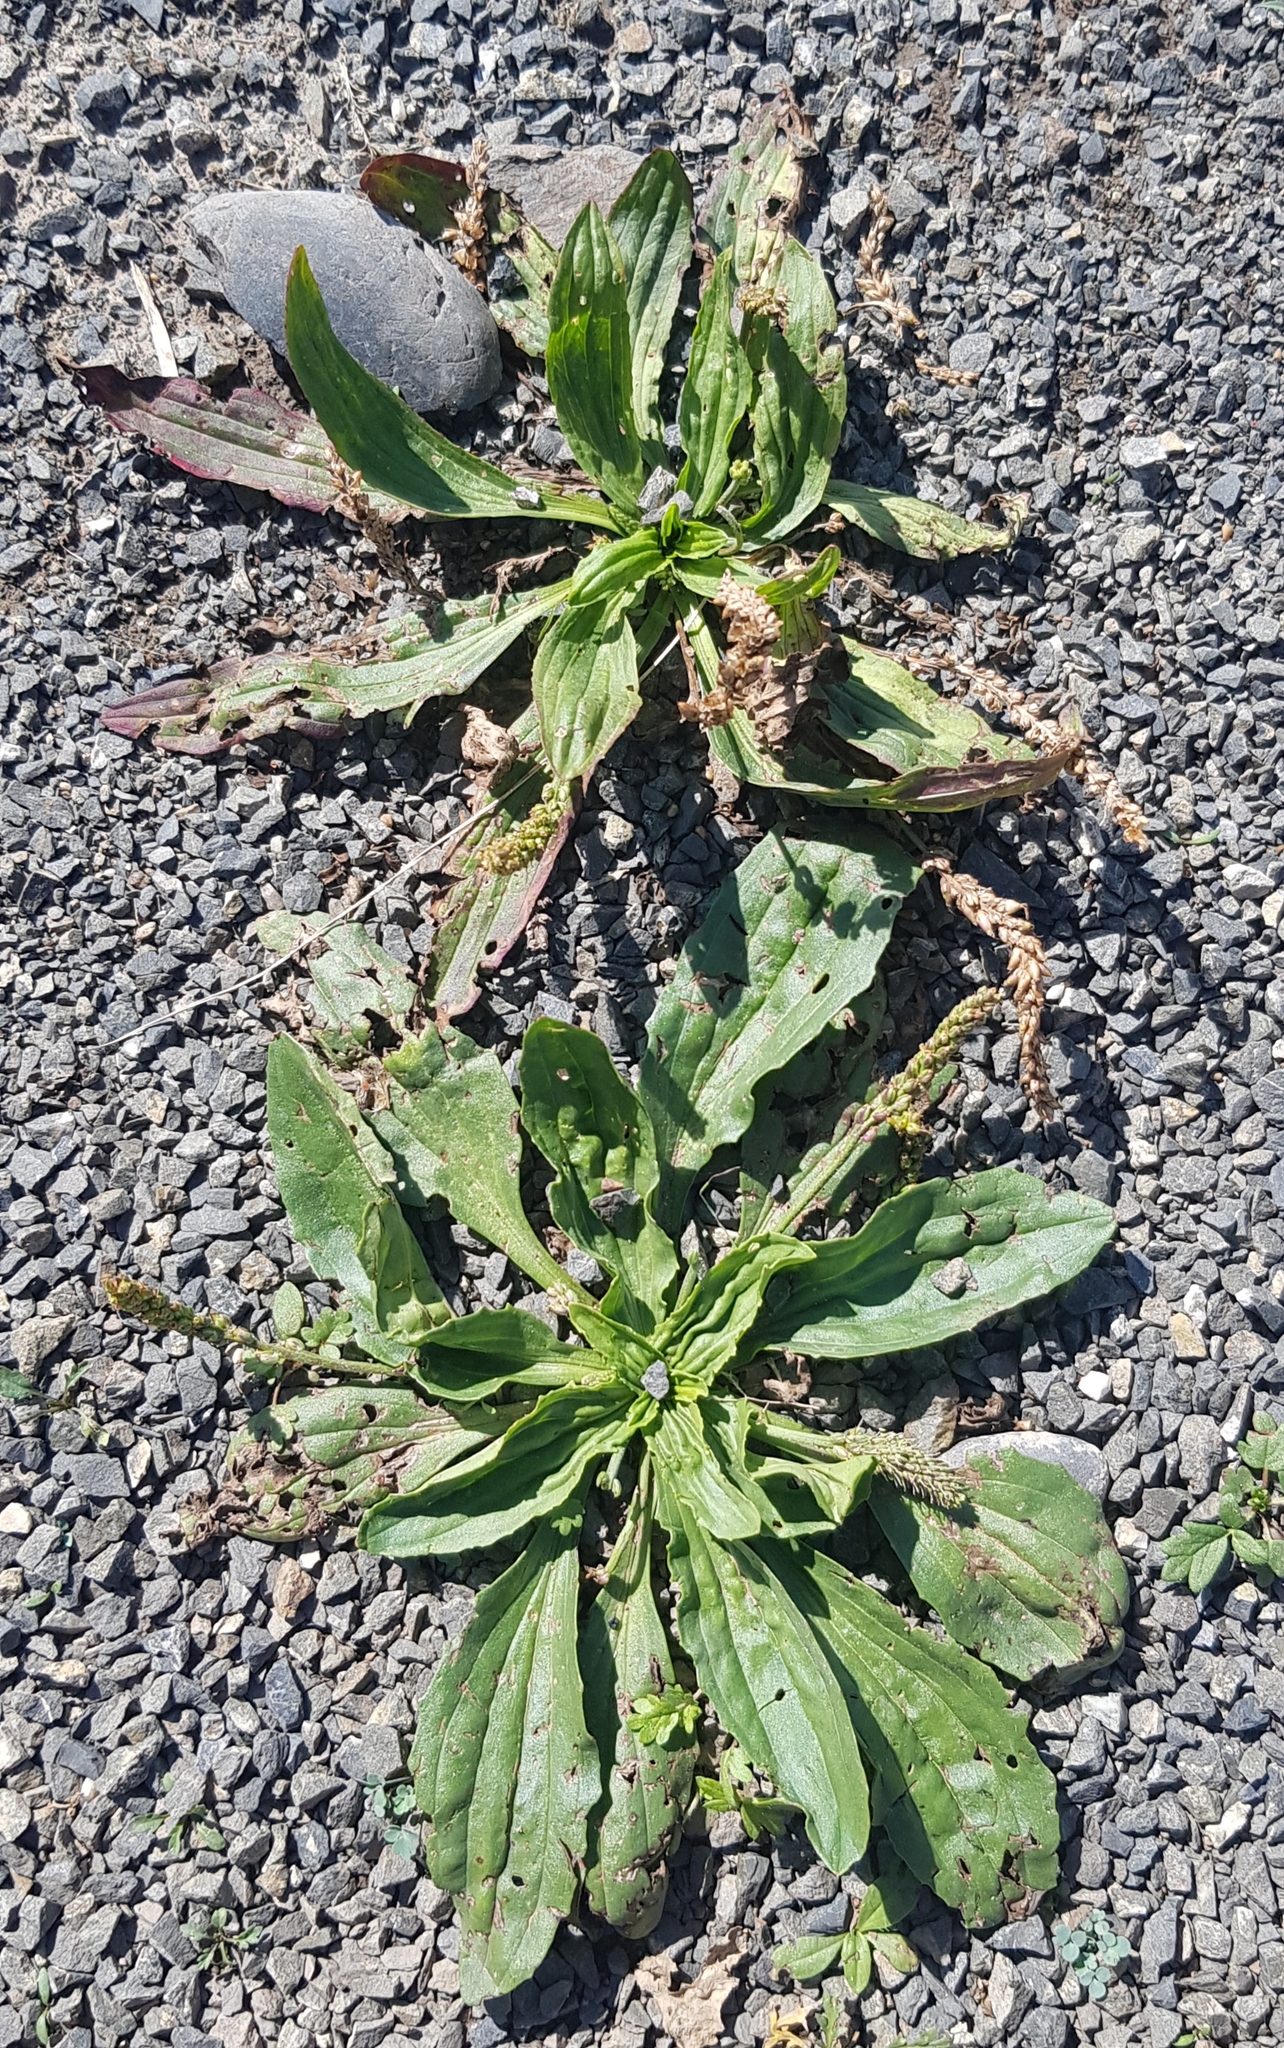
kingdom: Plantae
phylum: Tracheophyta
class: Magnoliopsida
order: Lamiales
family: Plantaginaceae
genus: Plantago
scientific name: Plantago depressa
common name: Depressed plantain
